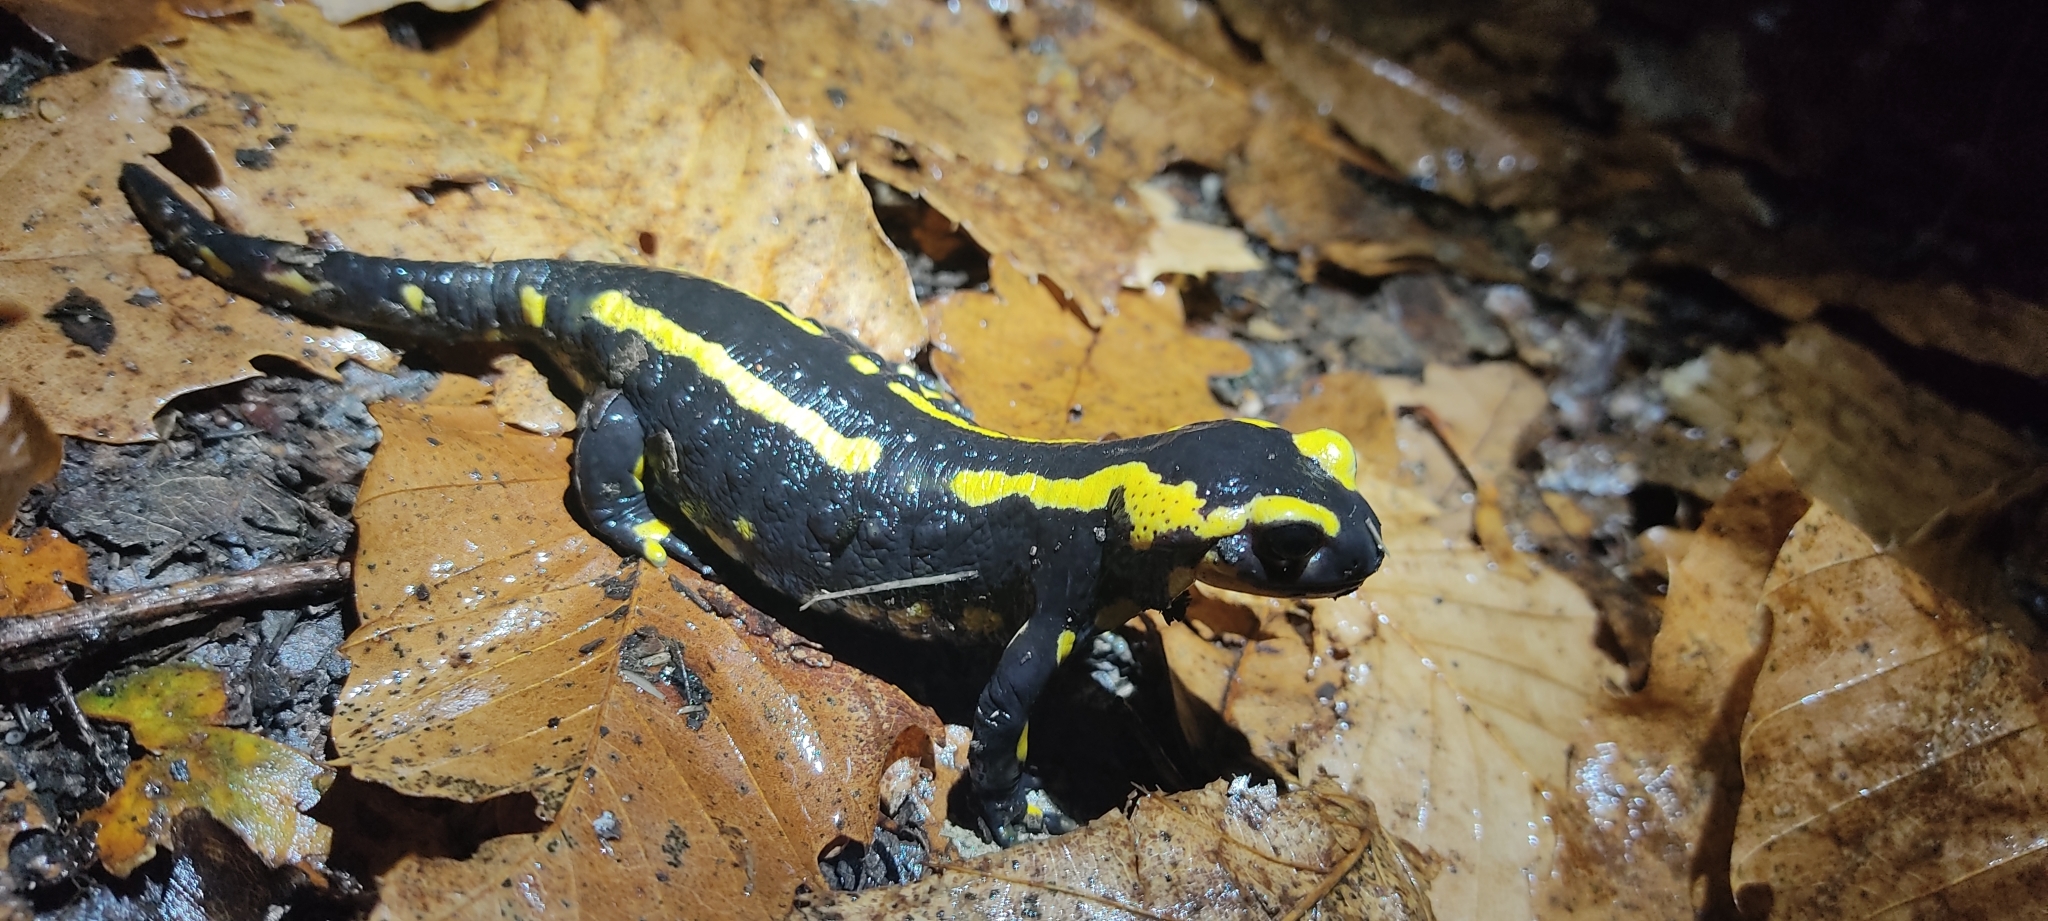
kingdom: Animalia
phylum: Chordata
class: Amphibia
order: Caudata
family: Salamandridae
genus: Salamandra
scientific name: Salamandra salamandra
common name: Fire salamander
